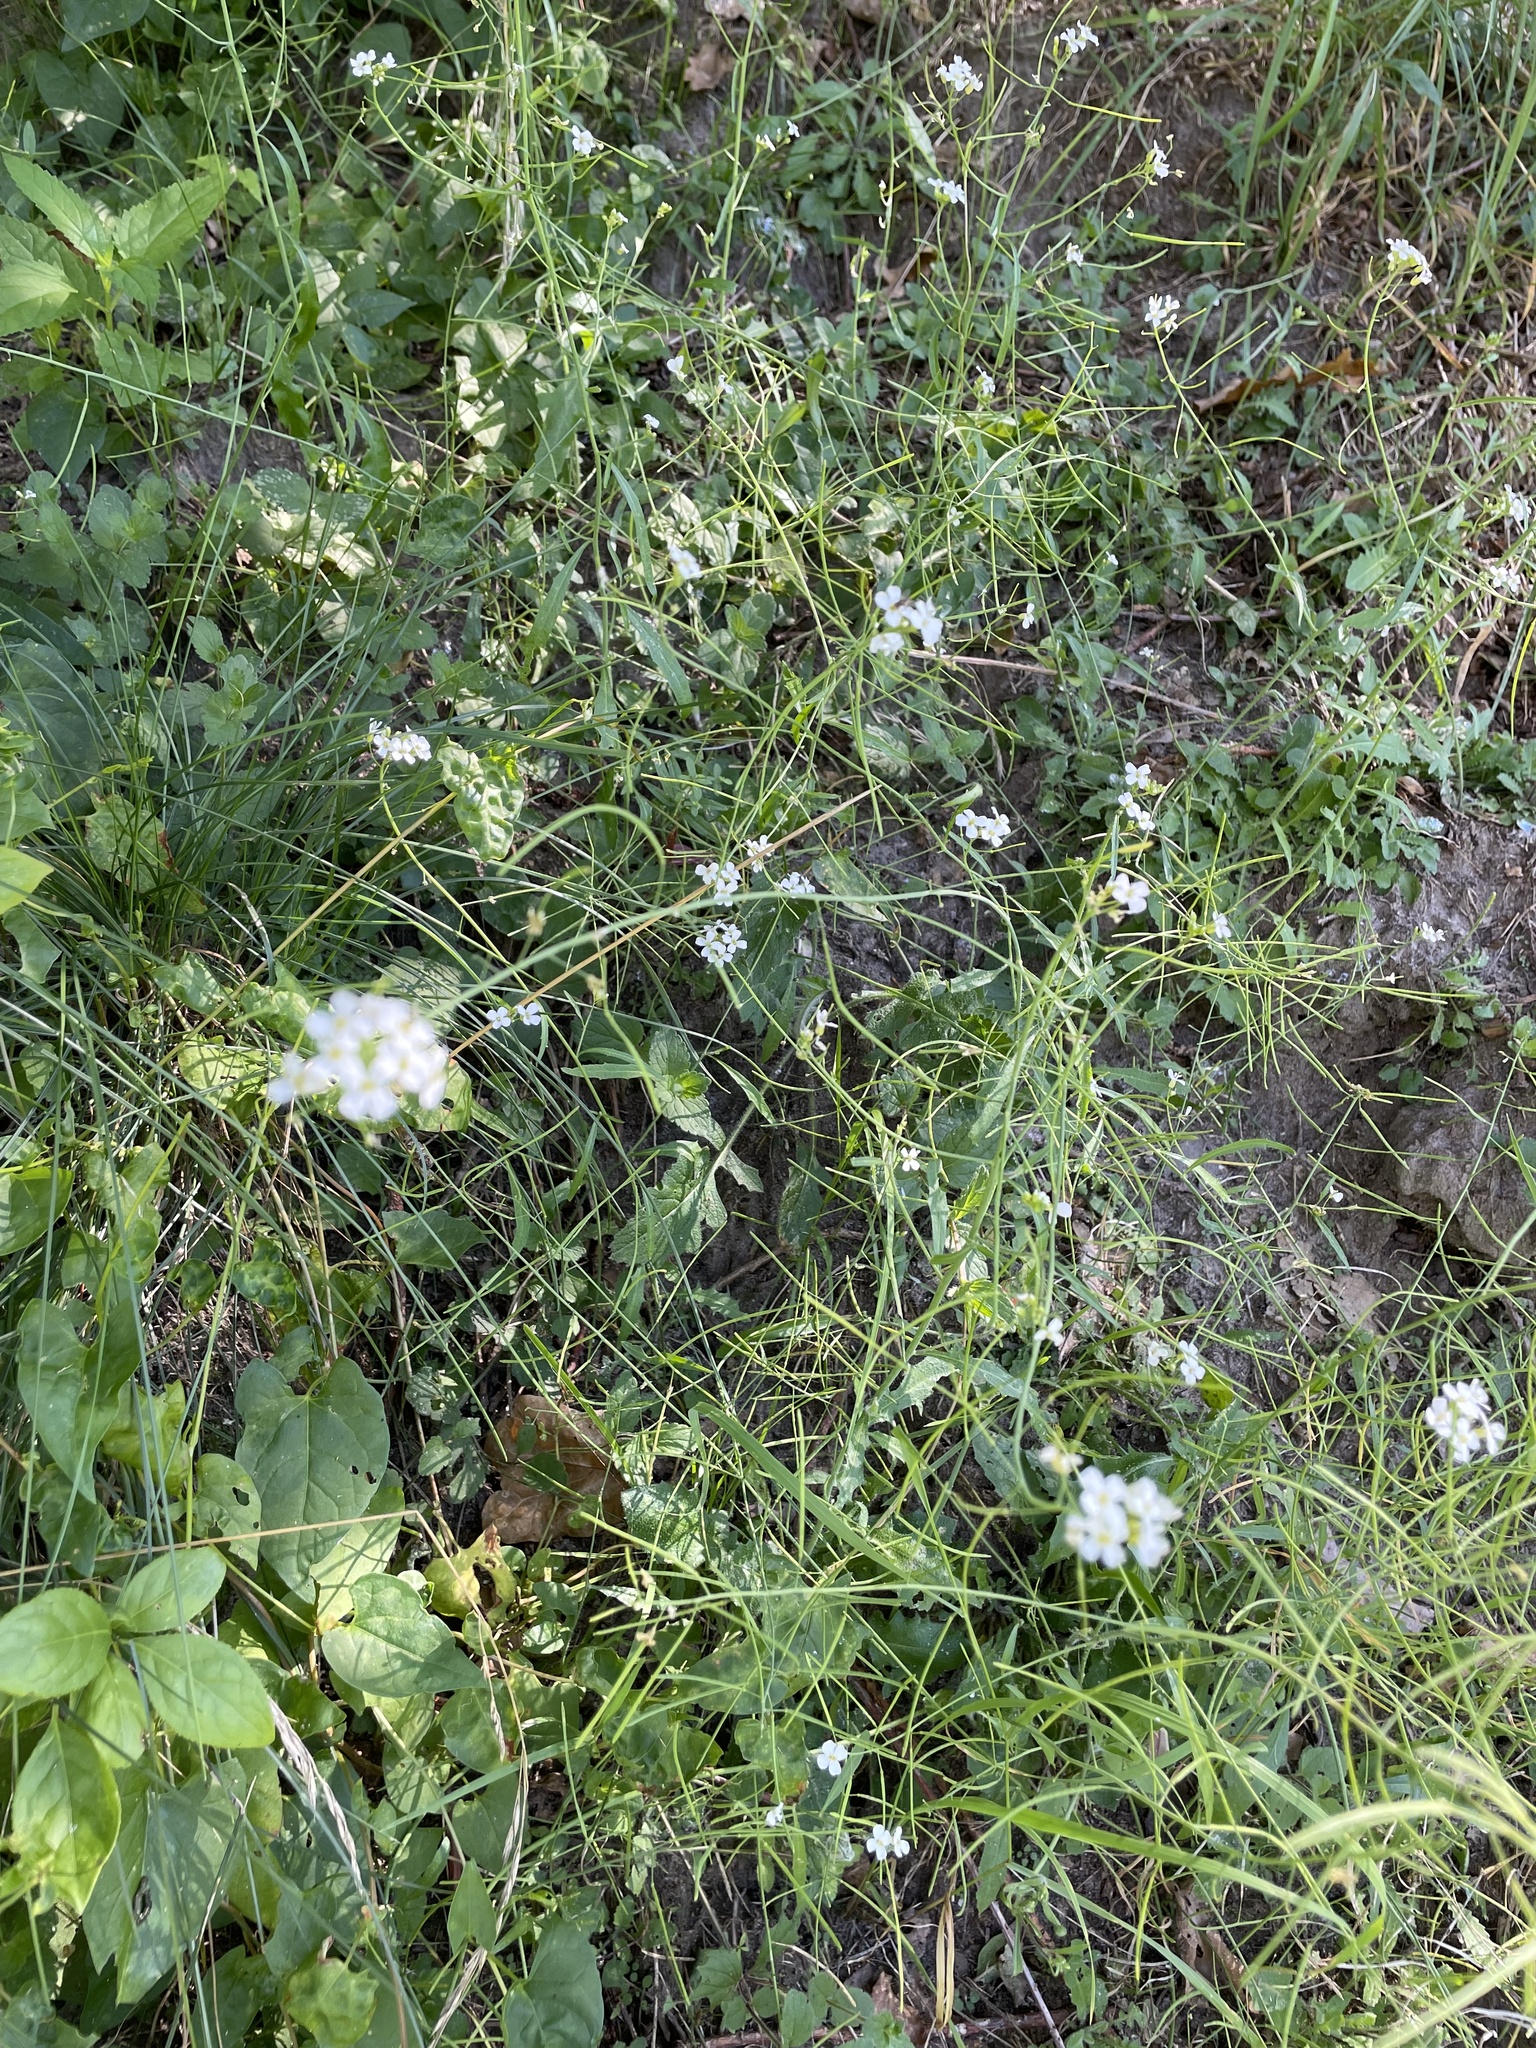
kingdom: Plantae
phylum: Tracheophyta
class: Magnoliopsida
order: Brassicales
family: Brassicaceae
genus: Arabidopsis
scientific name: Arabidopsis arenosa
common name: Sand rock-cress
